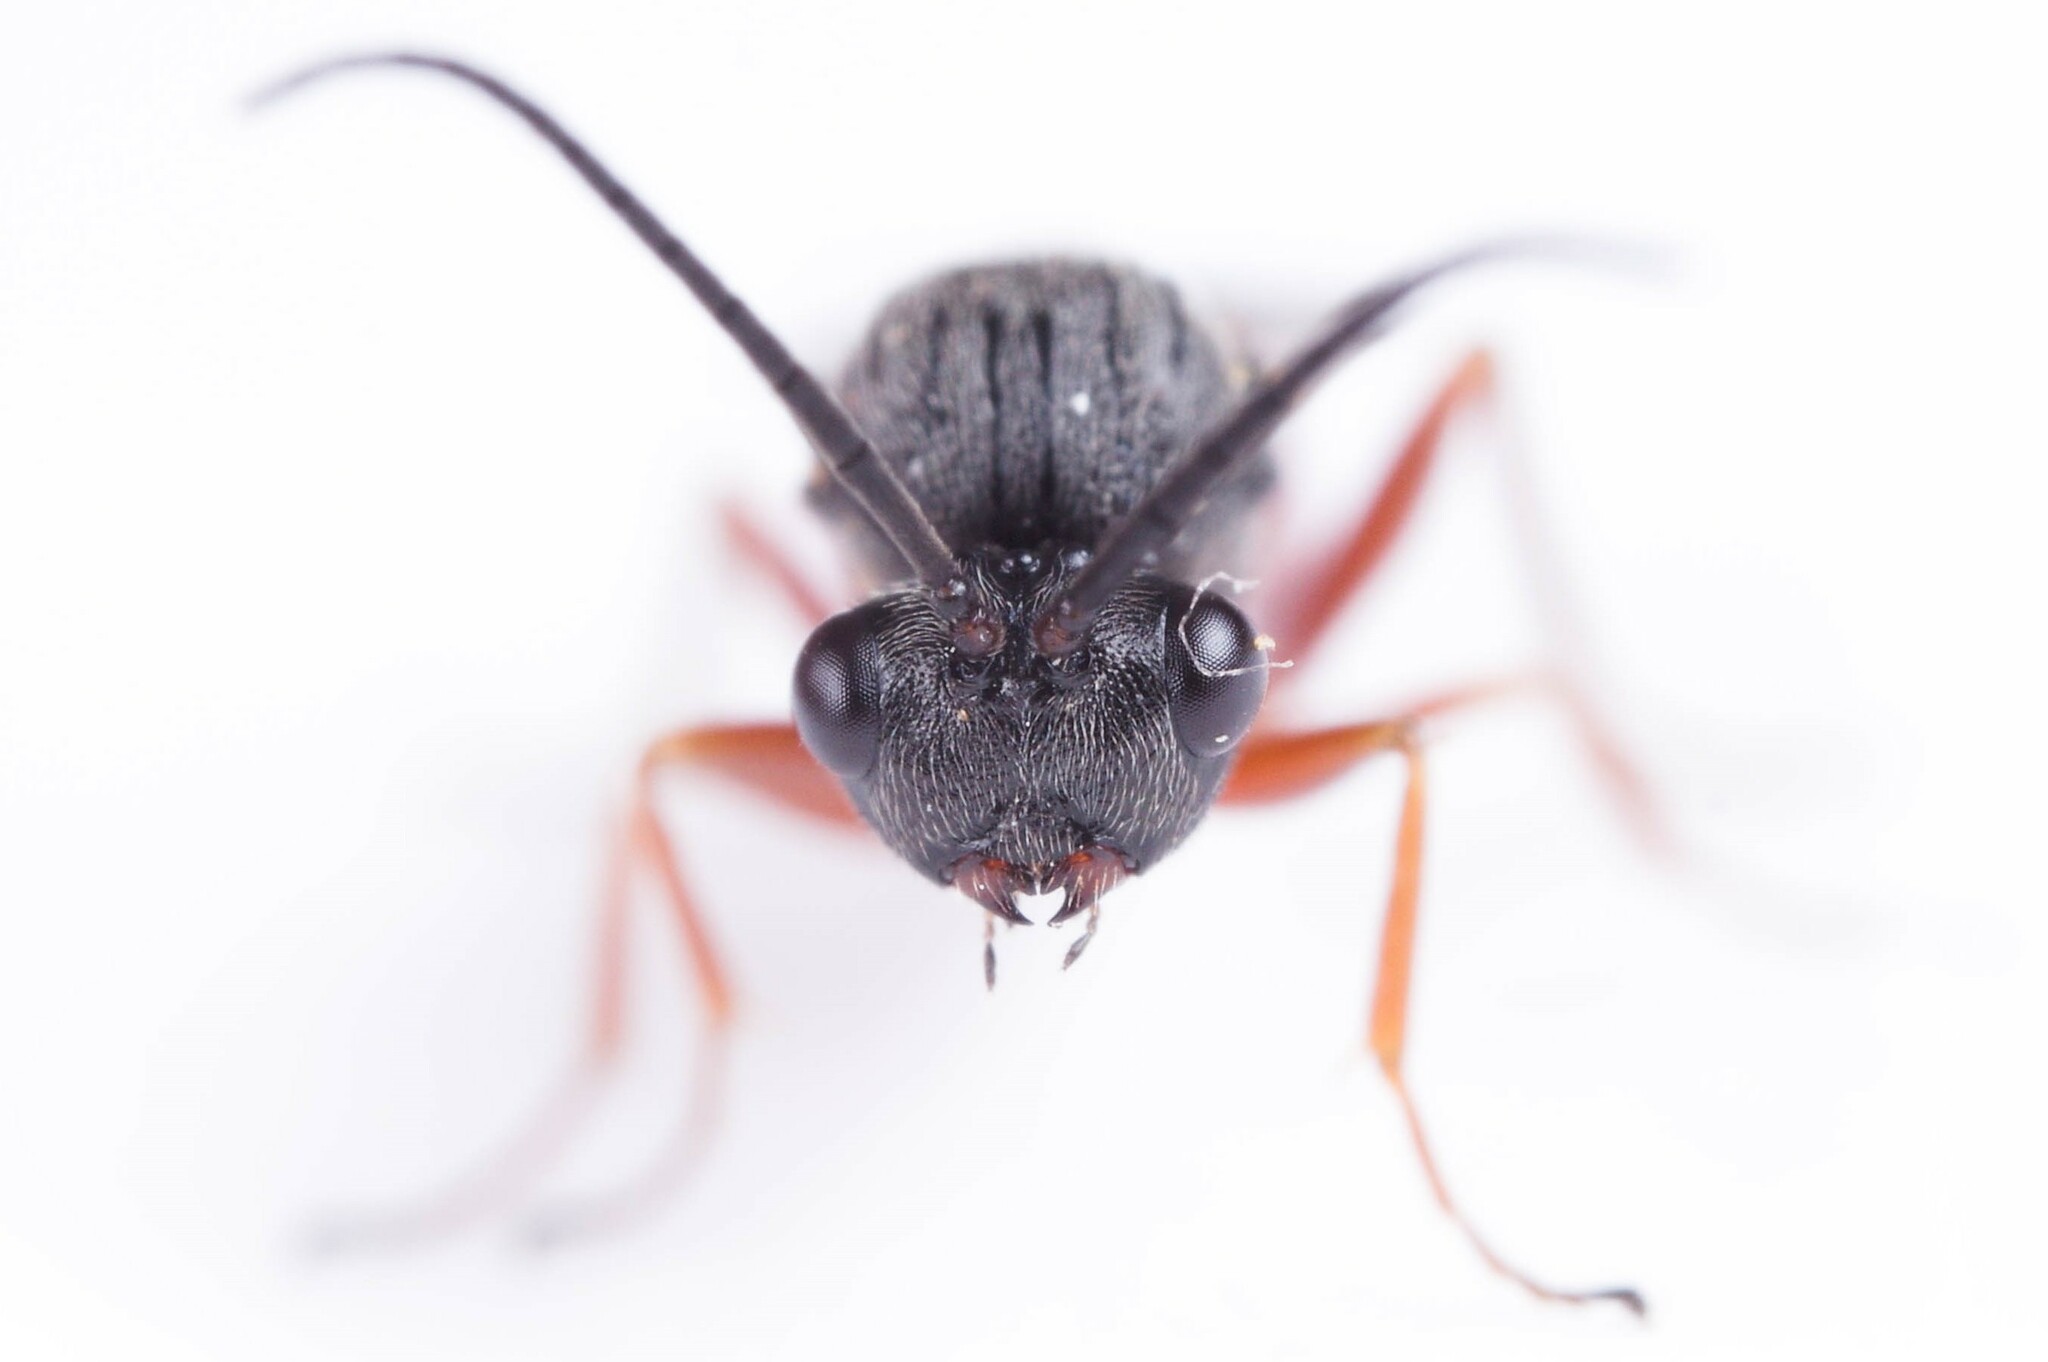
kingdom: Animalia
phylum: Arthropoda
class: Insecta
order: Hymenoptera
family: Cynipidae
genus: Diplolepis
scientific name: Diplolepis bicolor
